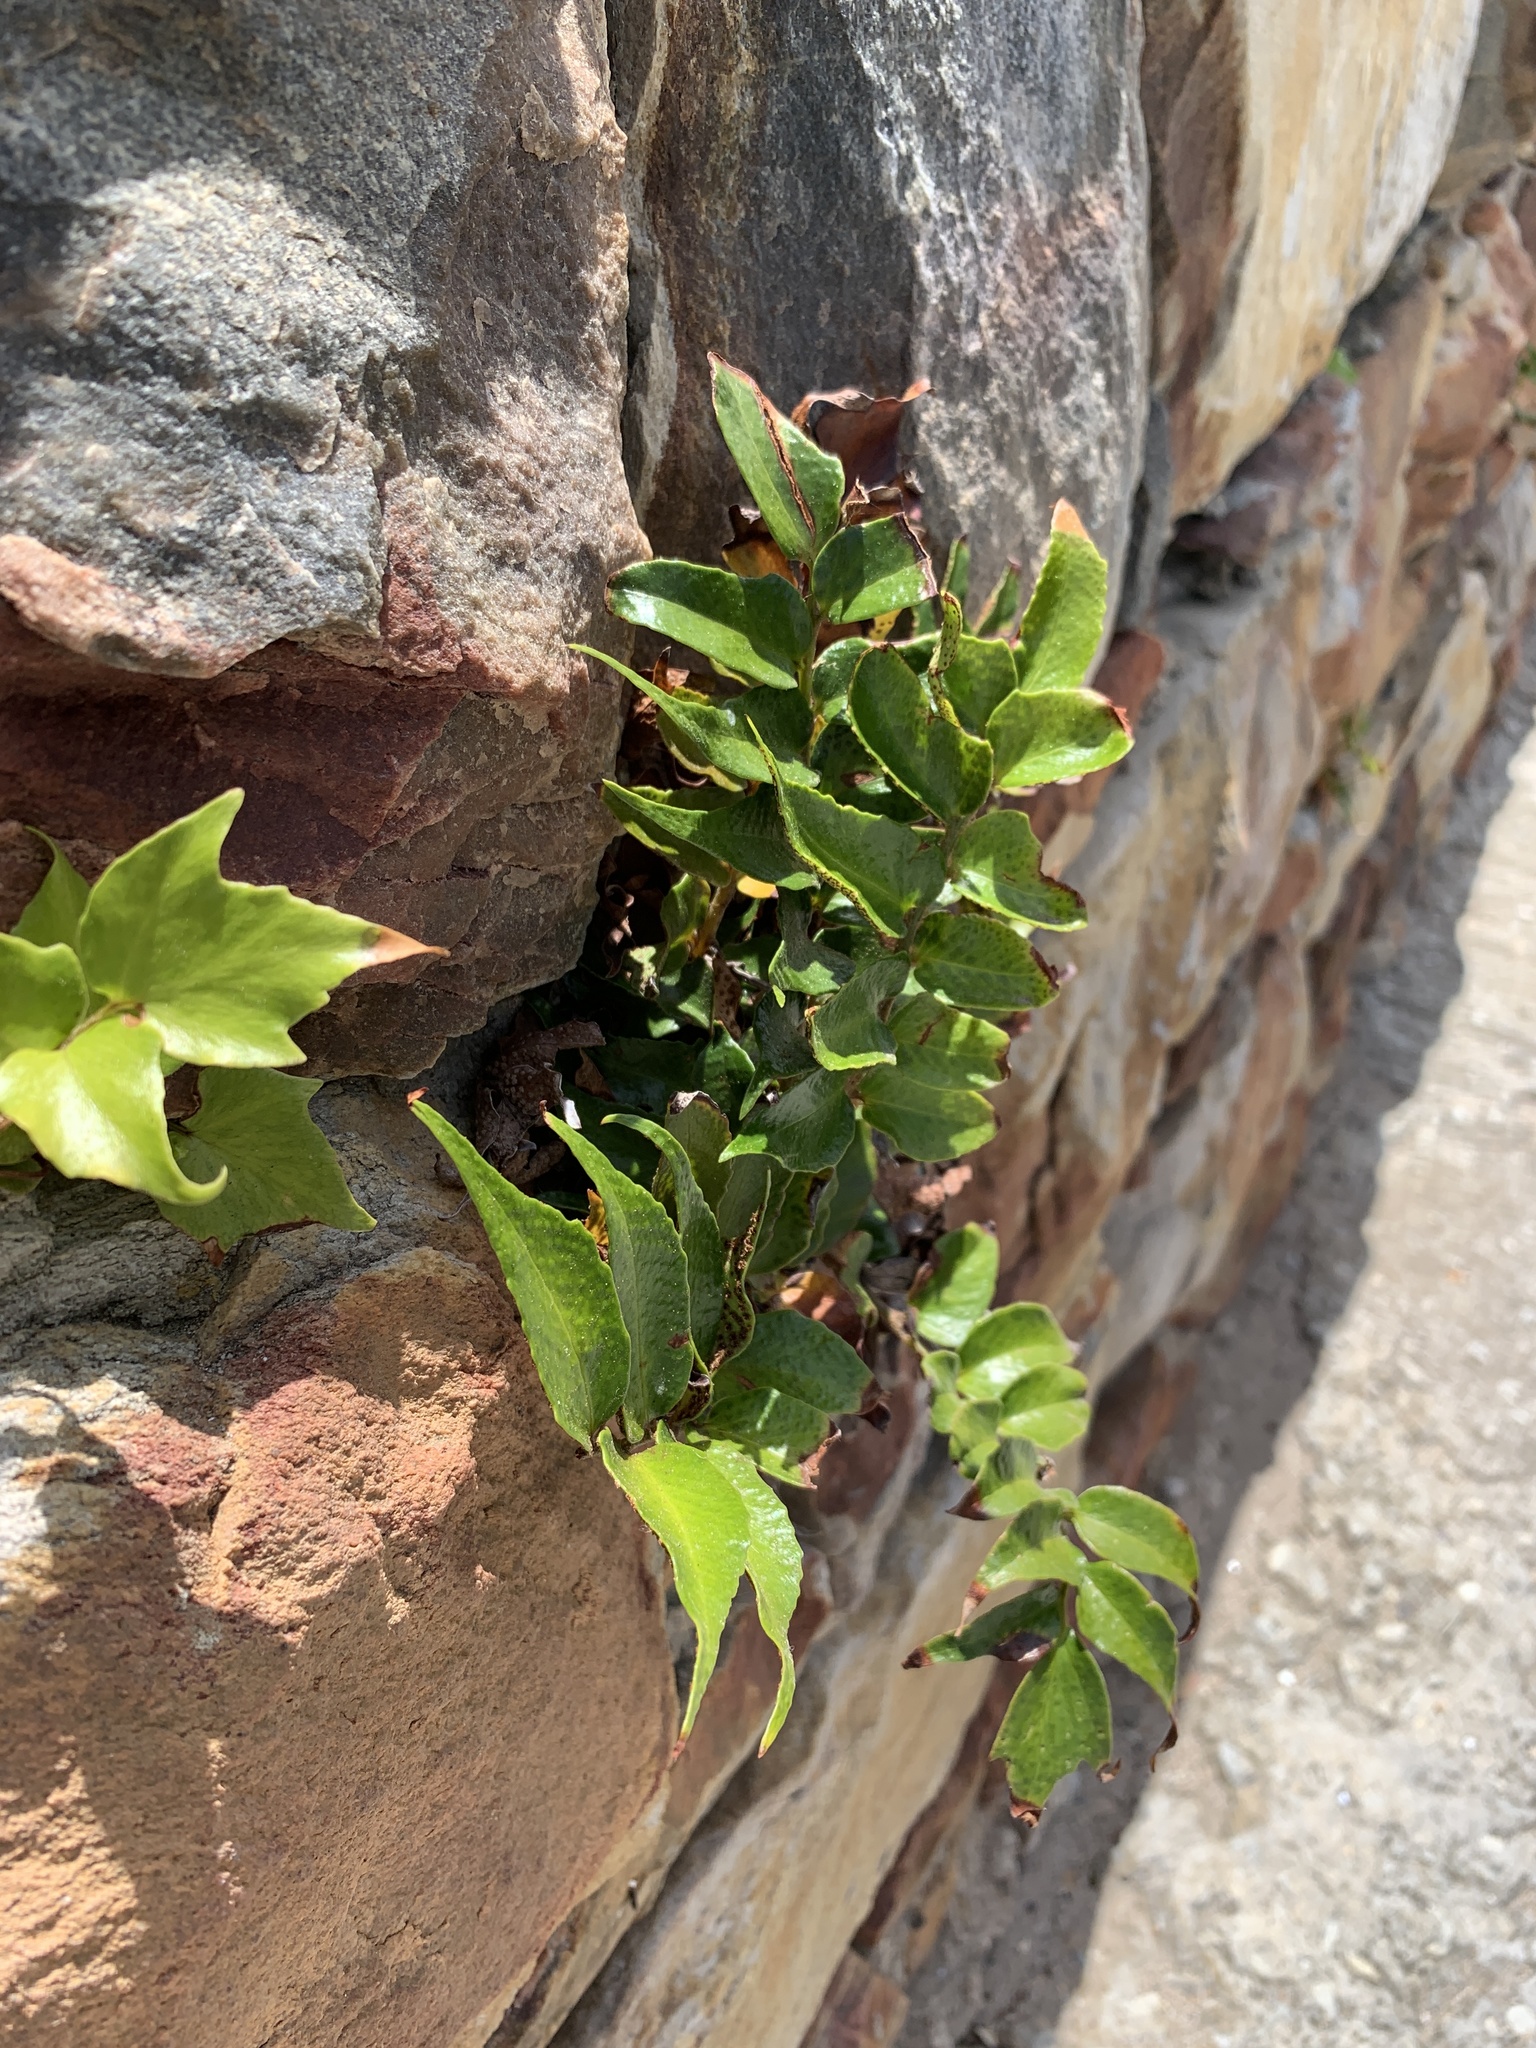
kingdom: Plantae
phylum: Tracheophyta
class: Polypodiopsida
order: Polypodiales
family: Dryopteridaceae
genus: Cyrtomium
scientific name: Cyrtomium falcatum
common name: House holly-fern
